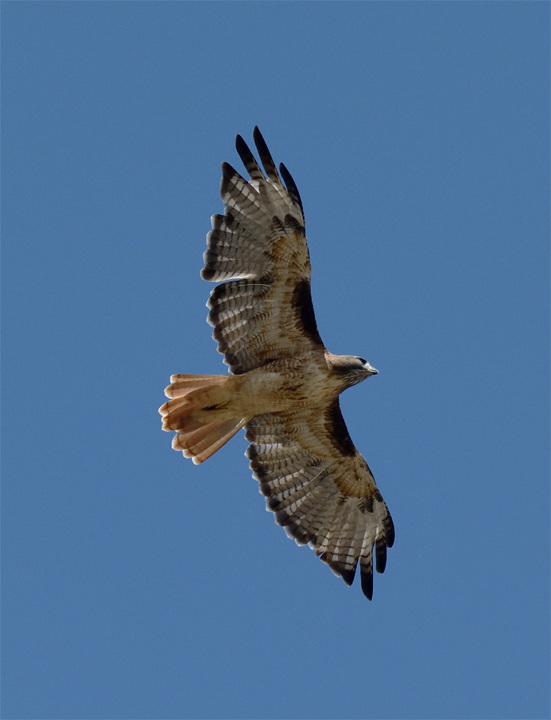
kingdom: Animalia
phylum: Chordata
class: Aves
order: Accipitriformes
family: Accipitridae
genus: Buteo
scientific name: Buteo jamaicensis
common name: Red-tailed hawk
